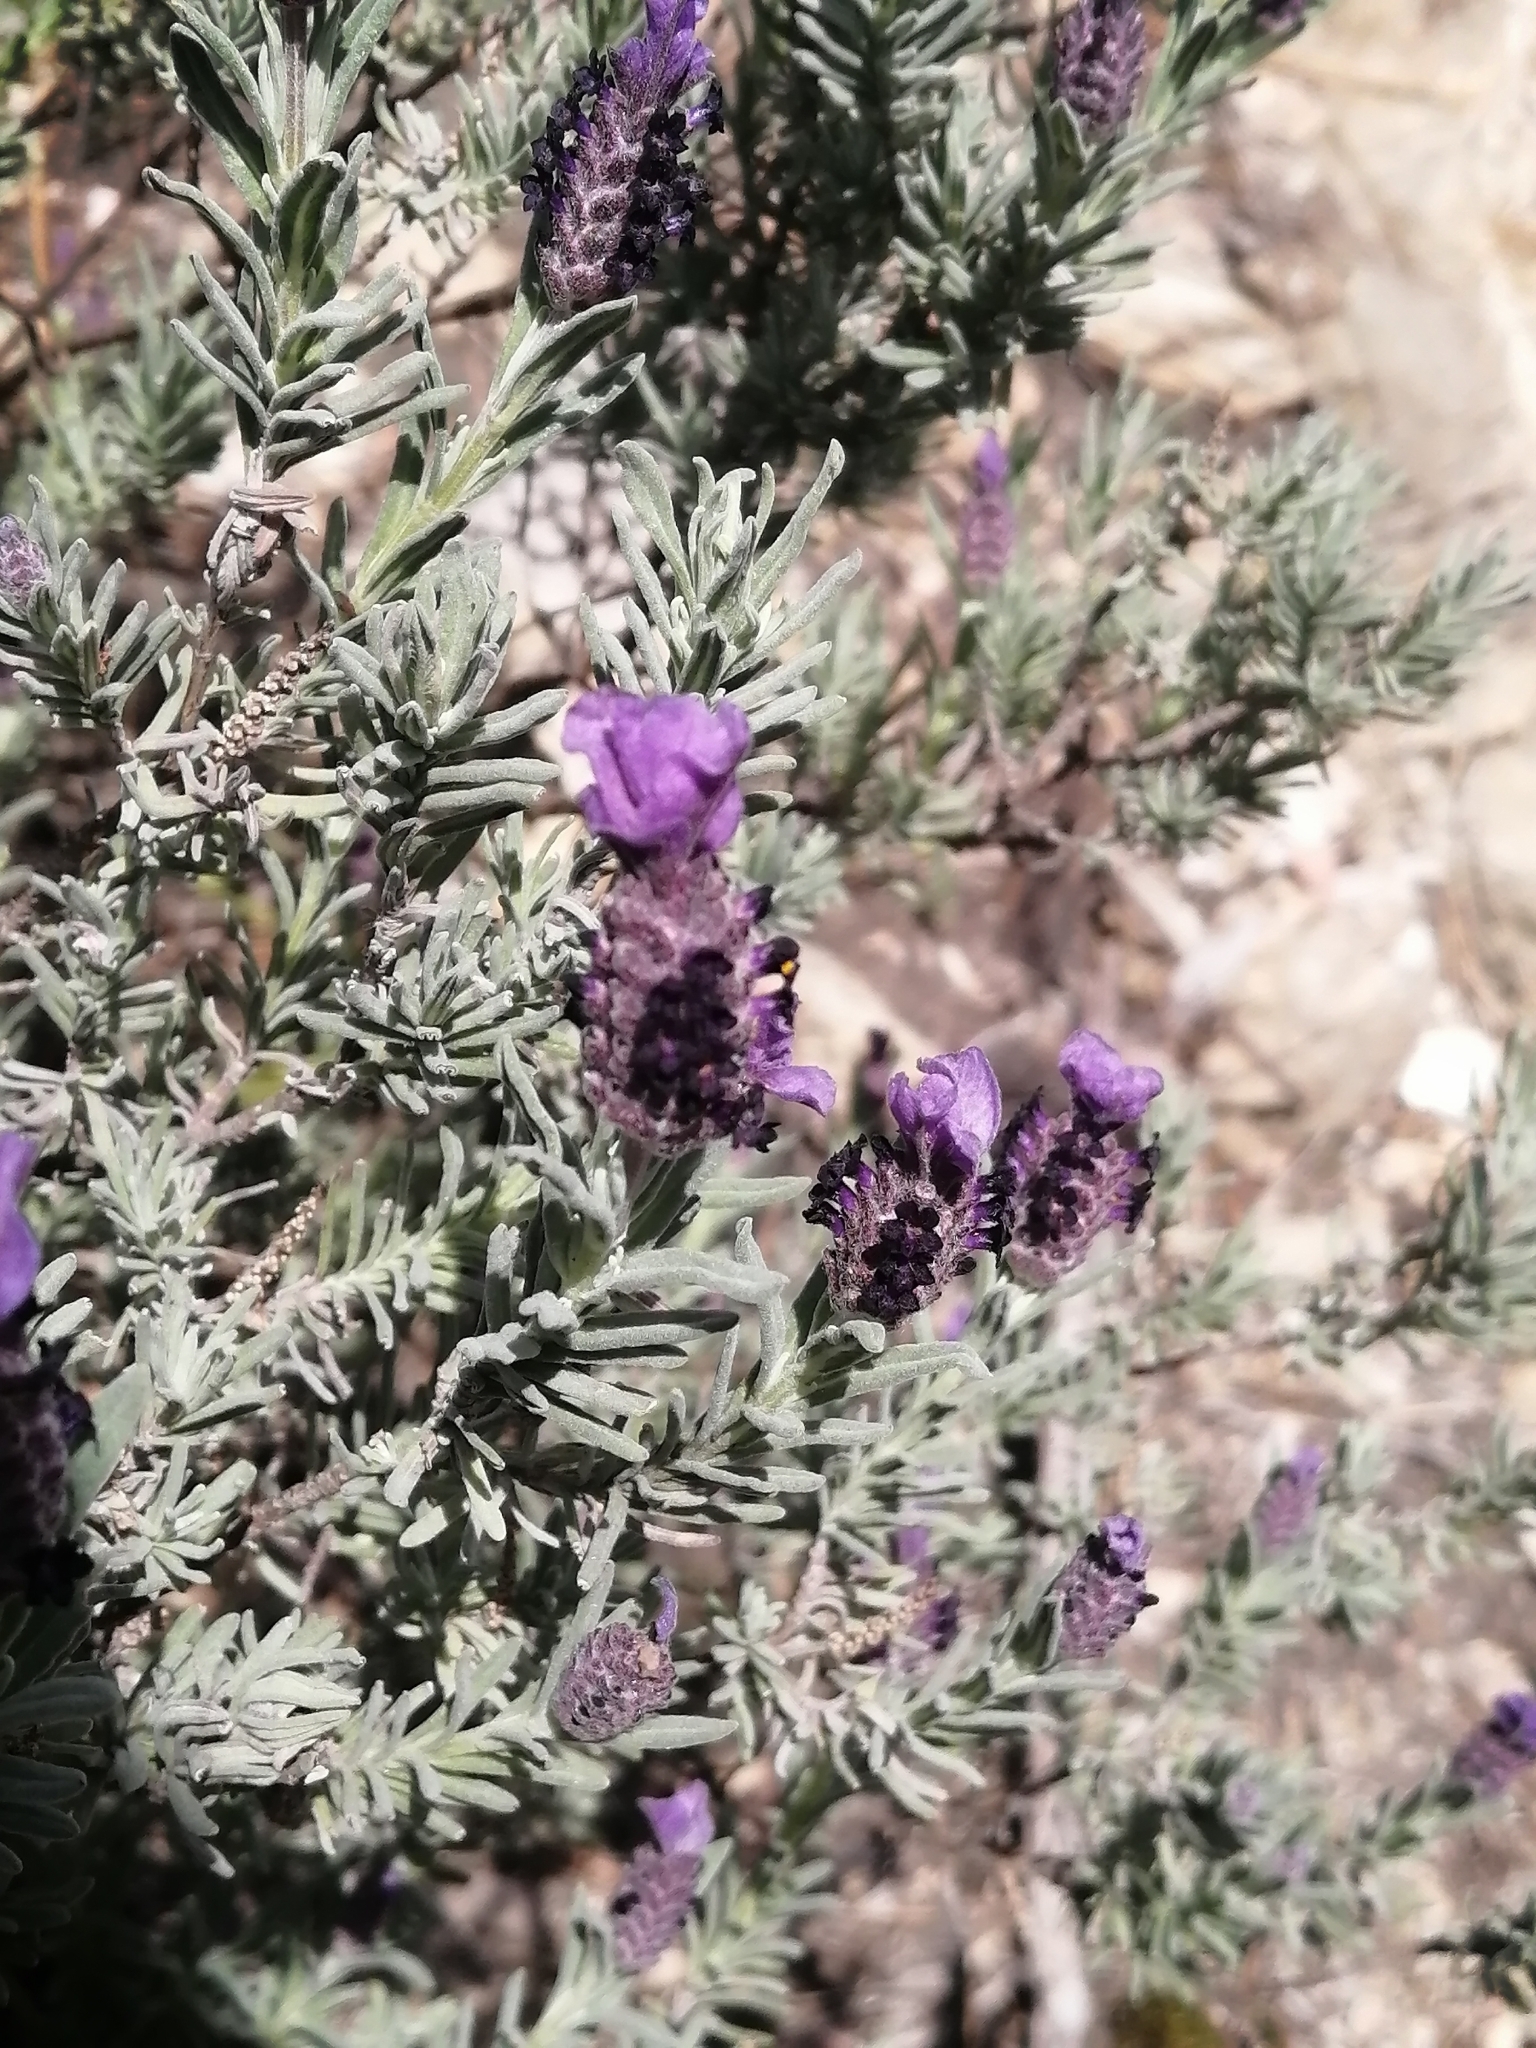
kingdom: Plantae
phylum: Tracheophyta
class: Magnoliopsida
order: Lamiales
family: Lamiaceae
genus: Lavandula
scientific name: Lavandula stoechas
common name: French lavender
